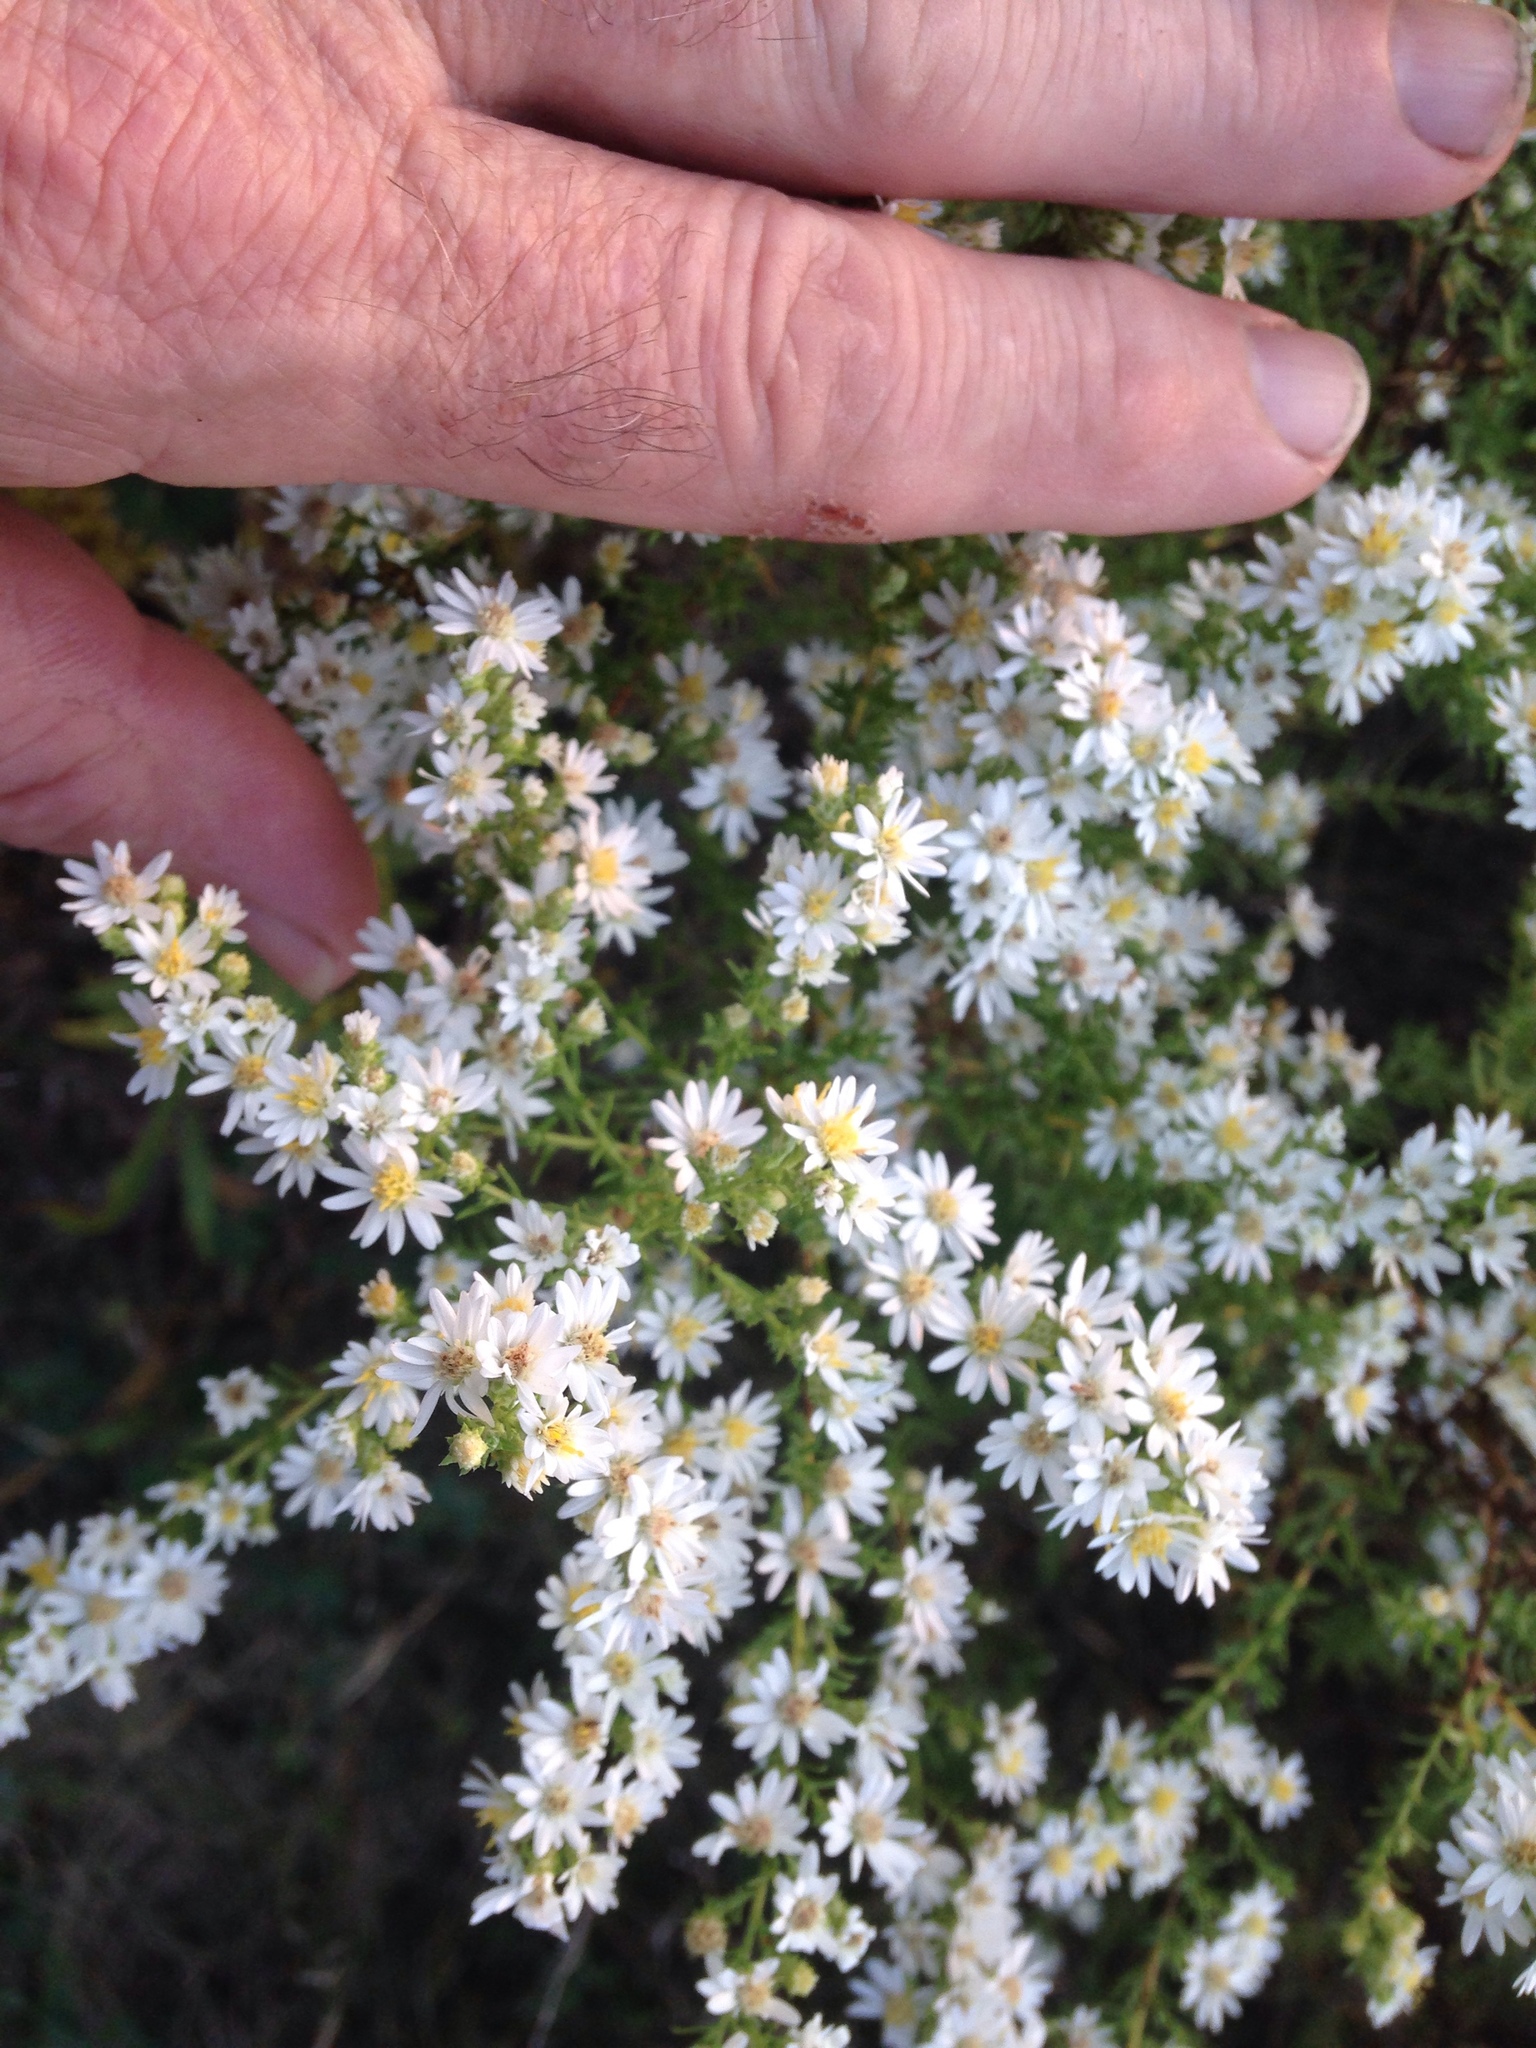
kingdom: Plantae
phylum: Tracheophyta
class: Magnoliopsida
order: Asterales
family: Asteraceae
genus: Symphyotrichum
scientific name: Symphyotrichum ericoides
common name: Heath aster
